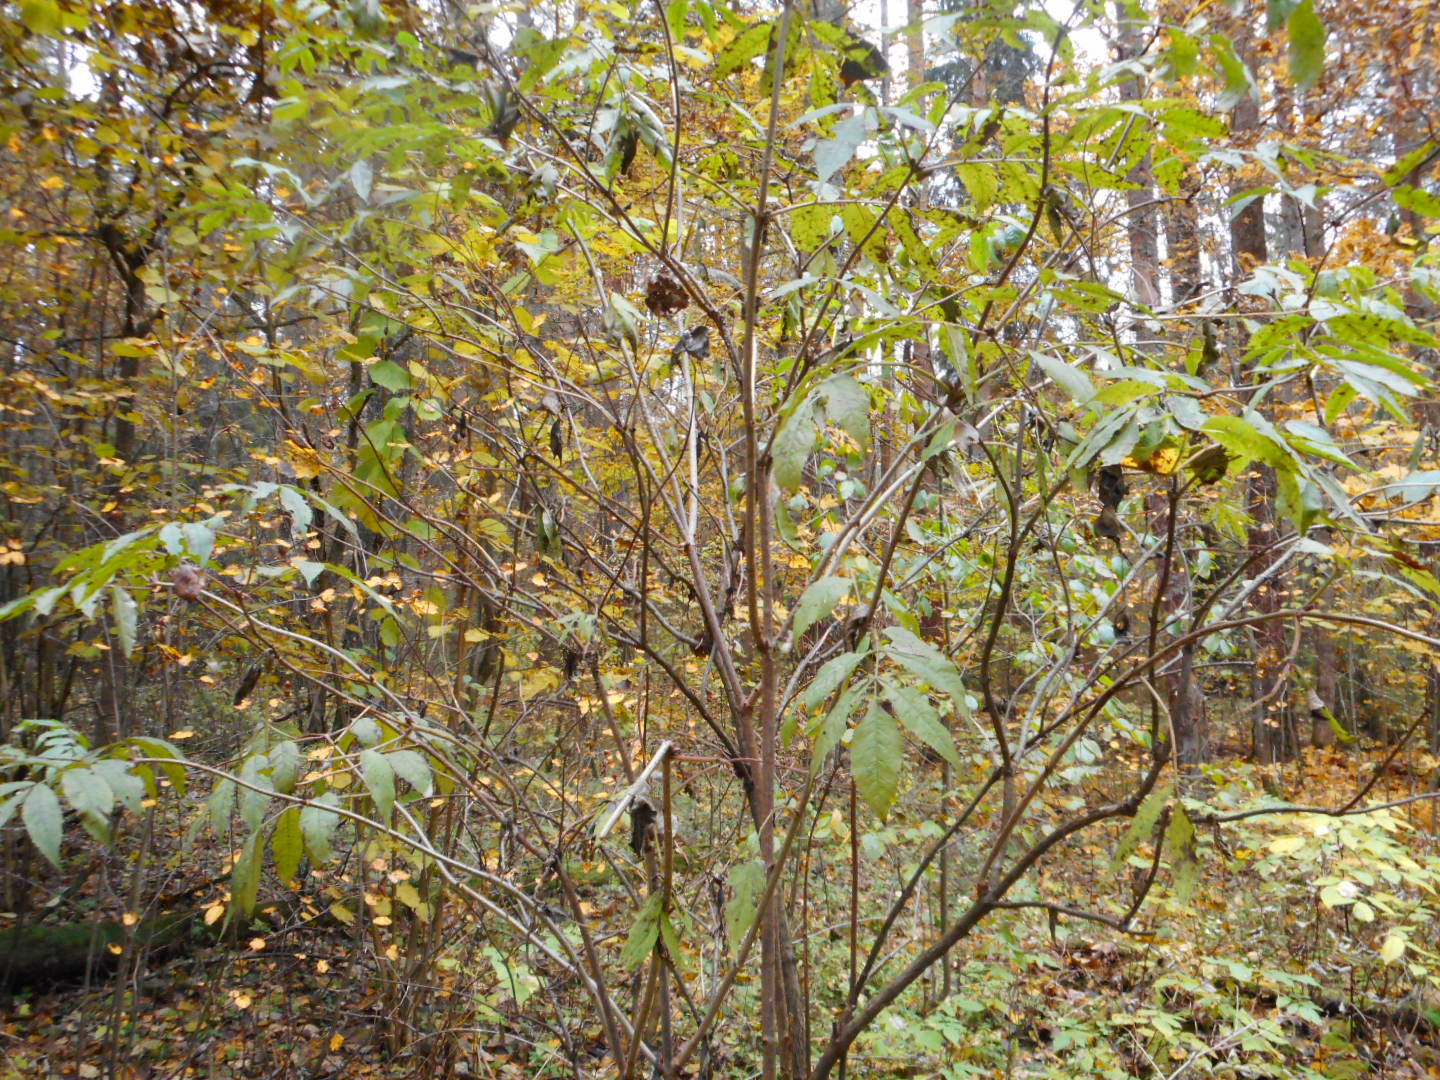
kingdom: Plantae
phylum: Tracheophyta
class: Magnoliopsida
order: Dipsacales
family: Viburnaceae
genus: Sambucus
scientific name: Sambucus racemosa
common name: Red-berried elder
